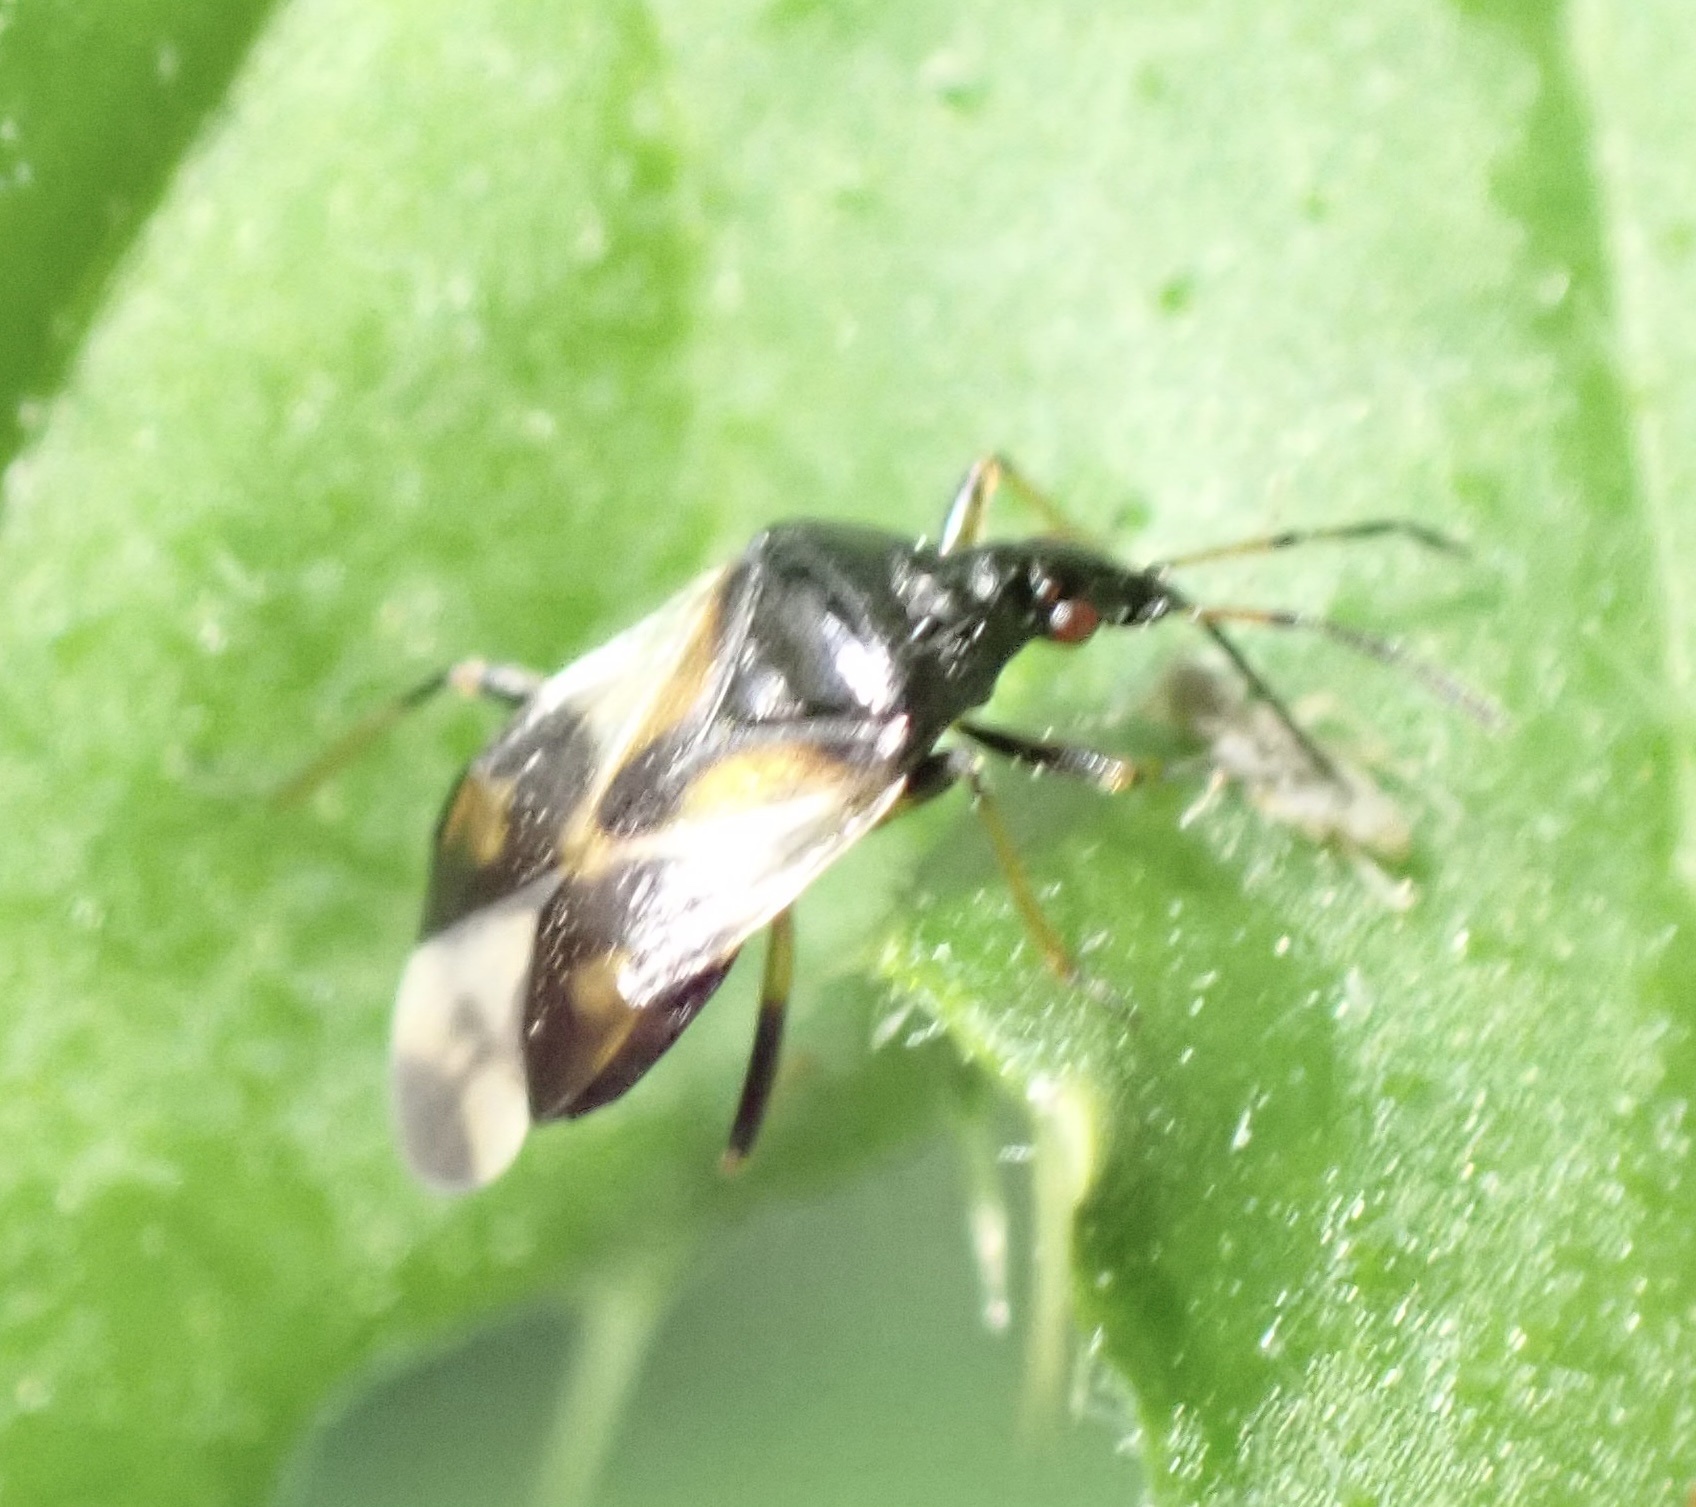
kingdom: Animalia
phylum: Arthropoda
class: Insecta
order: Hemiptera
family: Anthocoridae
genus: Anthocoris
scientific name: Anthocoris nemorum
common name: Minute pirate bug
